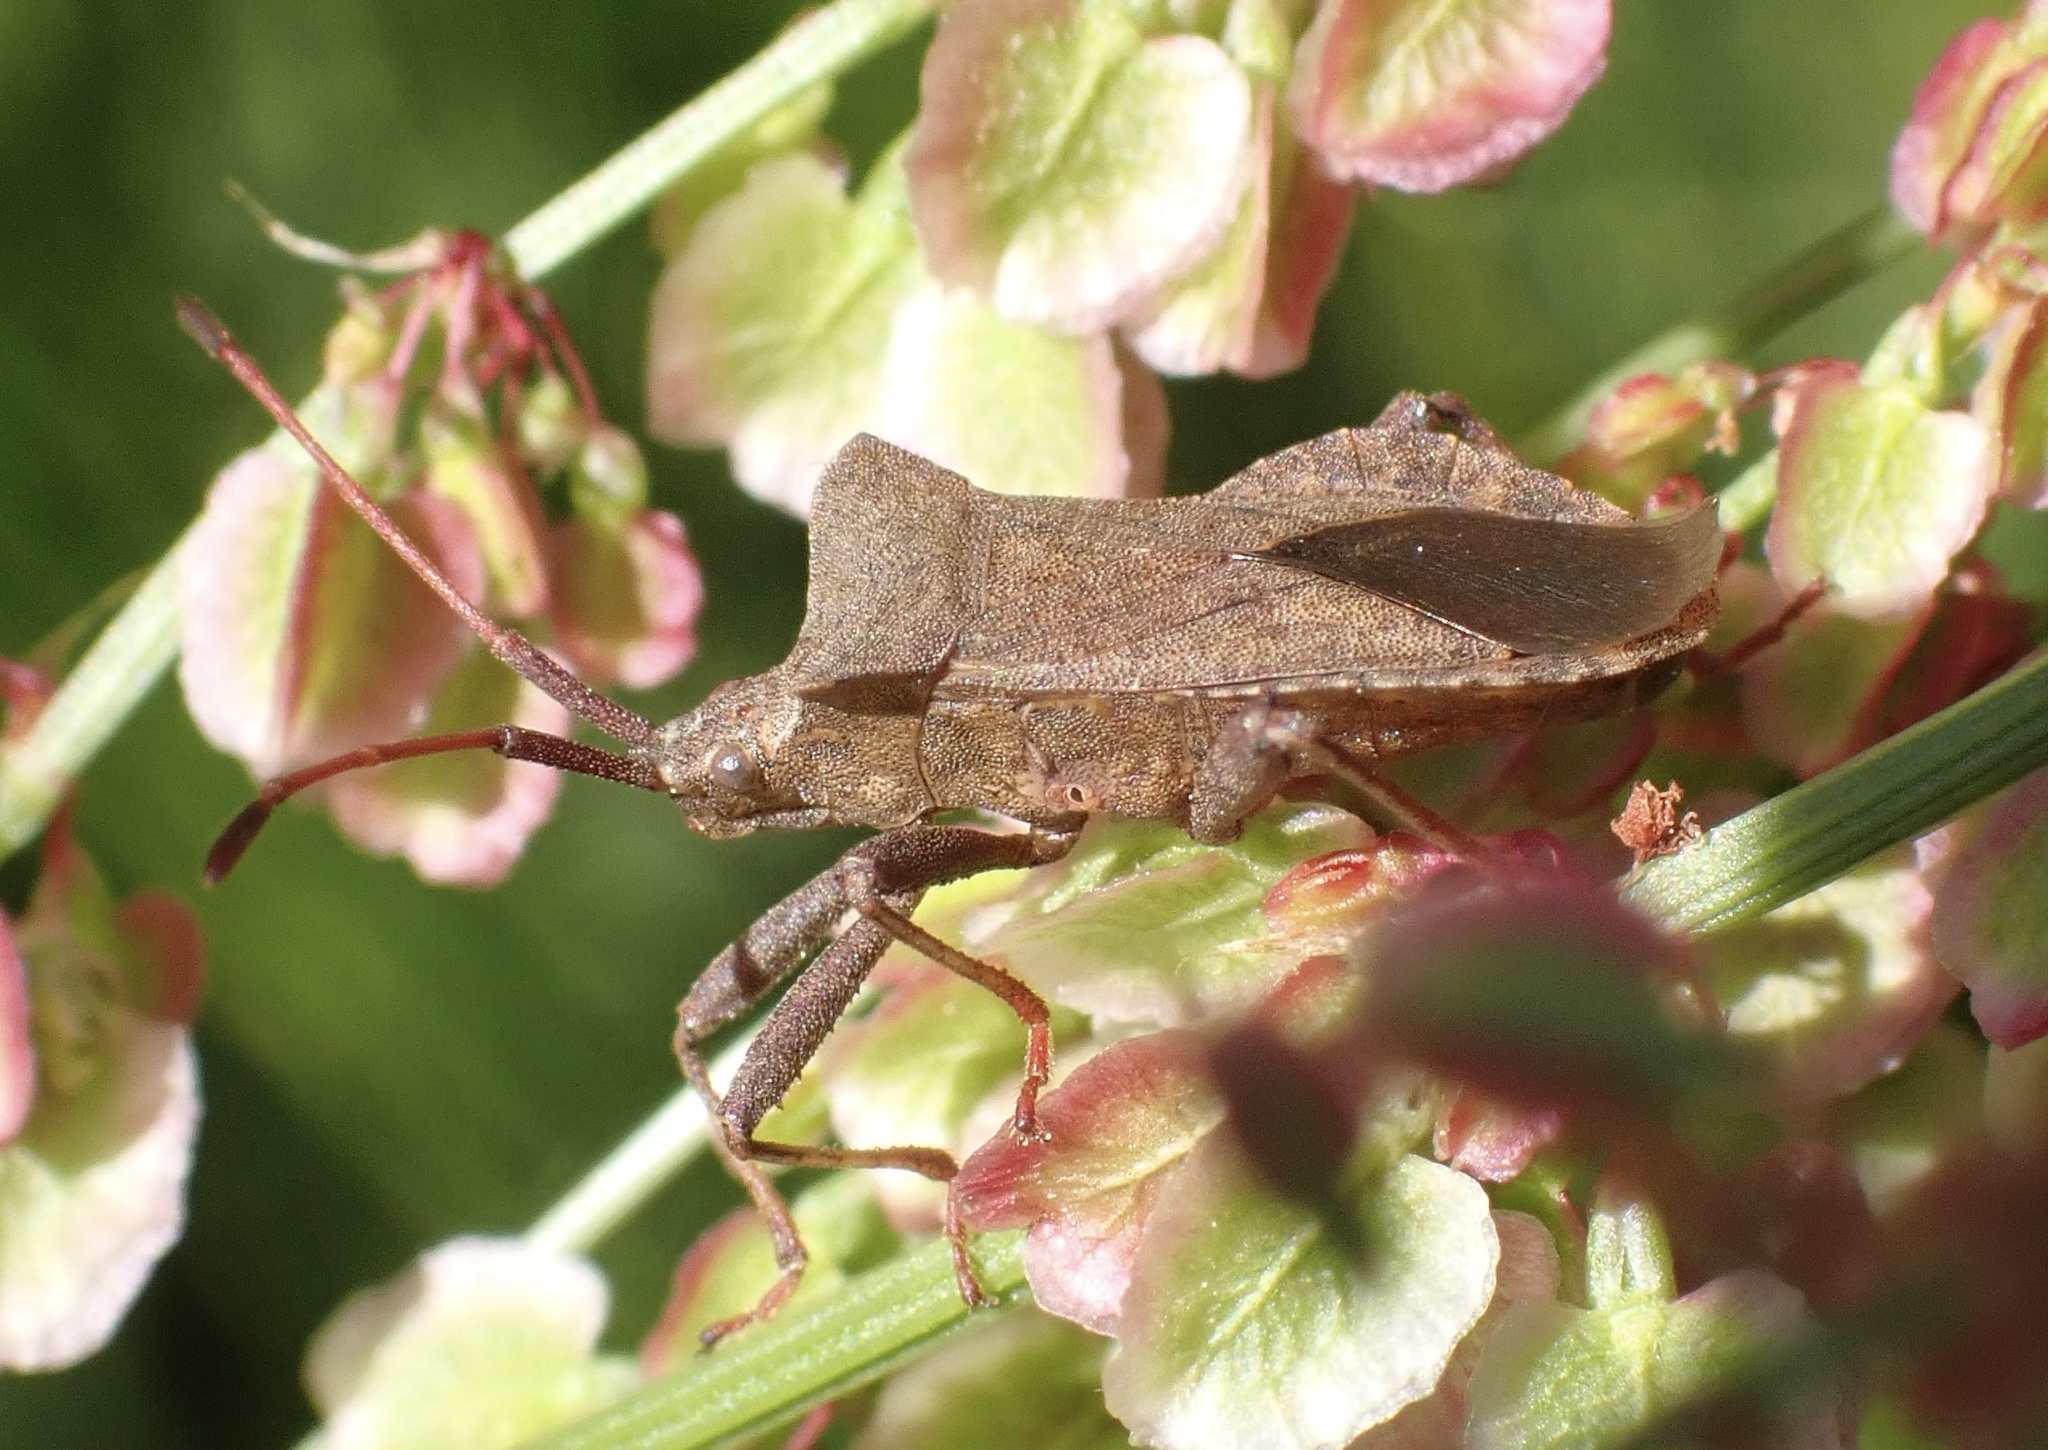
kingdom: Animalia
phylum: Arthropoda
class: Insecta
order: Hemiptera
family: Coreidae
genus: Coreus
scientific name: Coreus marginatus
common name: Dock bug
